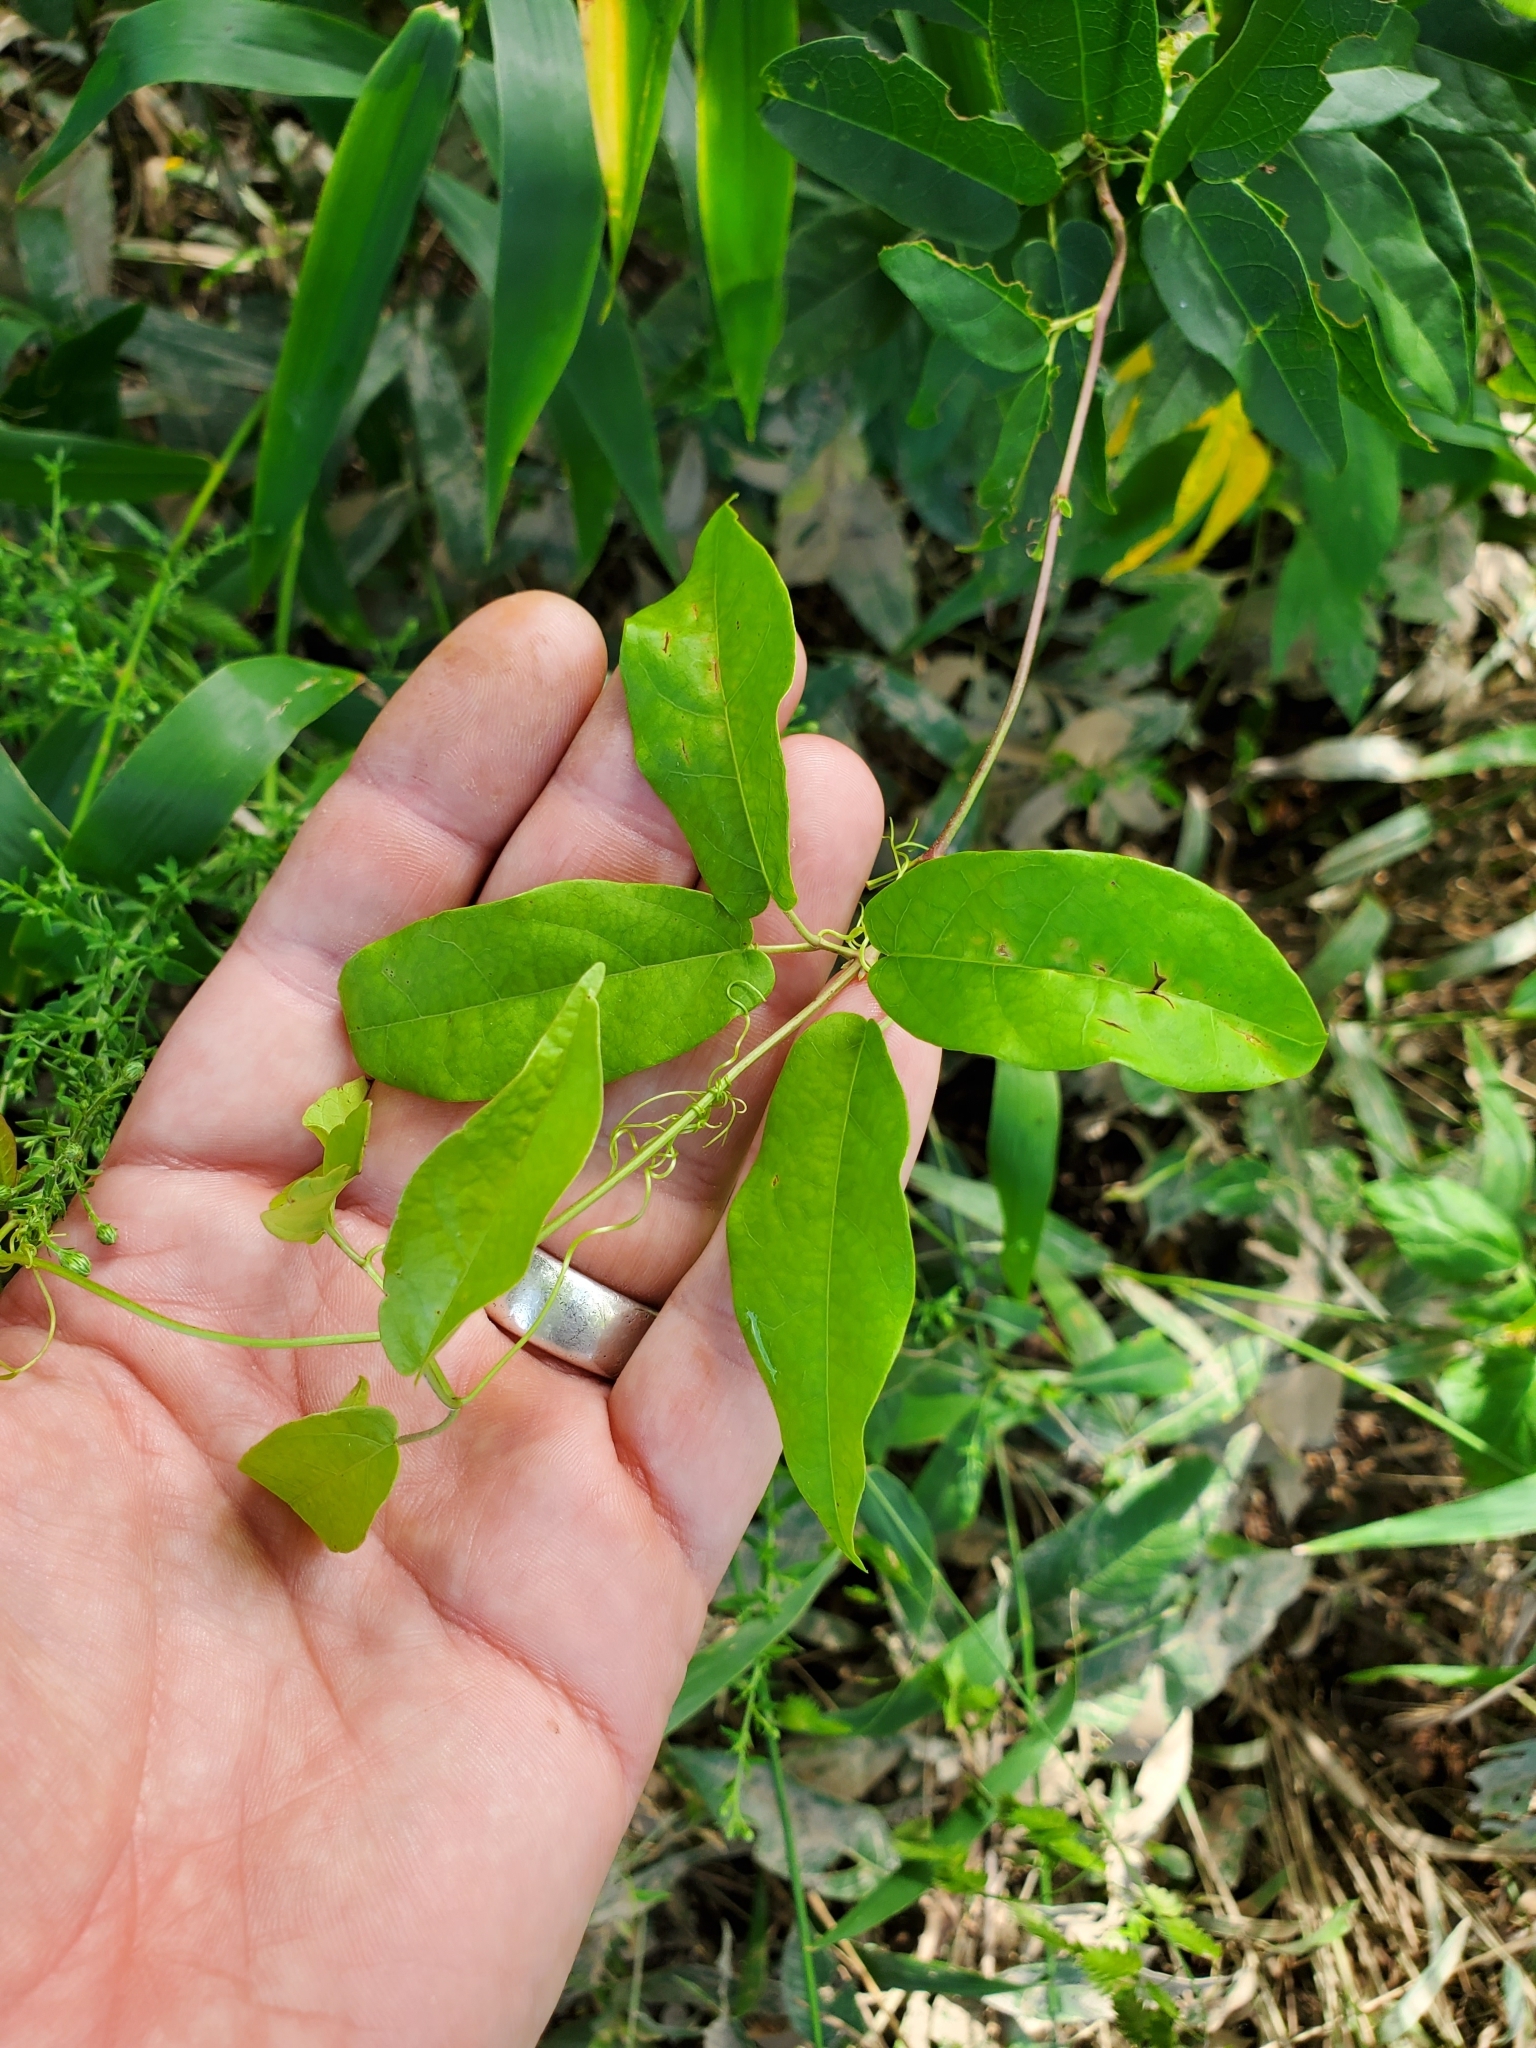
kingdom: Plantae
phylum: Tracheophyta
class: Magnoliopsida
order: Lamiales
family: Bignoniaceae
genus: Bignonia
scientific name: Bignonia capreolata
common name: Crossvine
